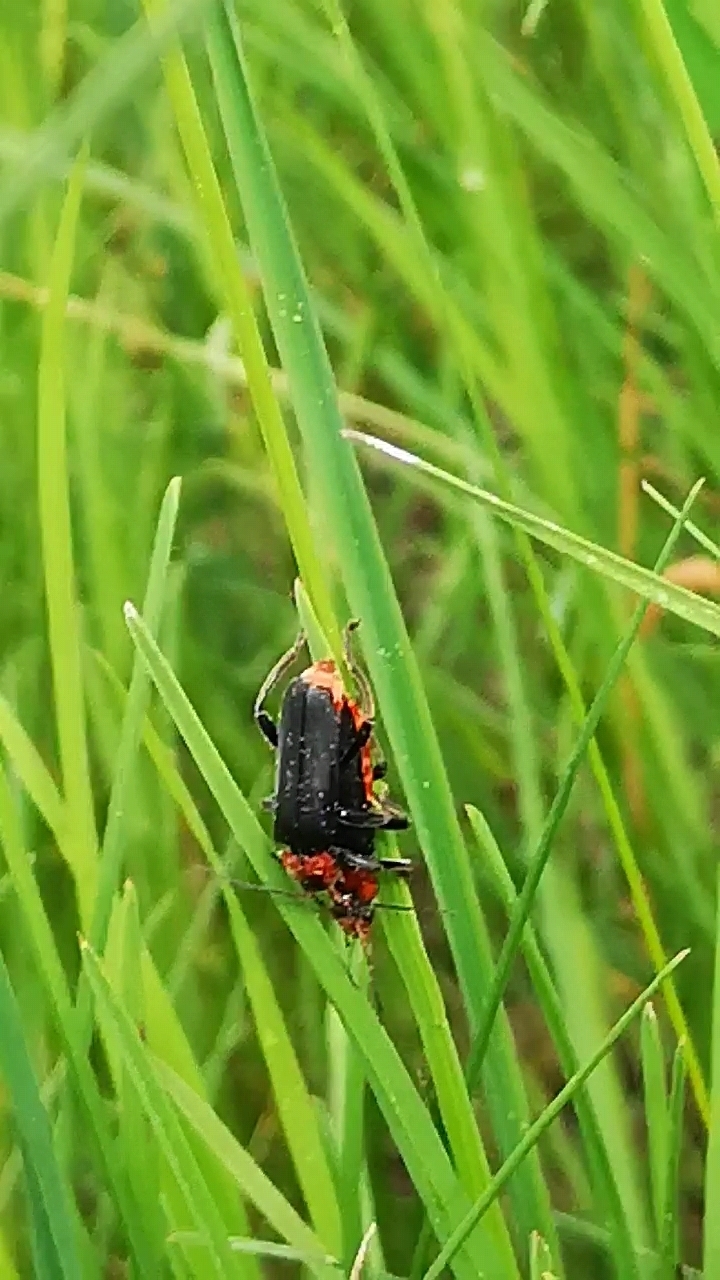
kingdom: Animalia
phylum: Arthropoda
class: Insecta
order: Coleoptera
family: Cantharidae
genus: Cantharis
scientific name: Cantharis fusca
